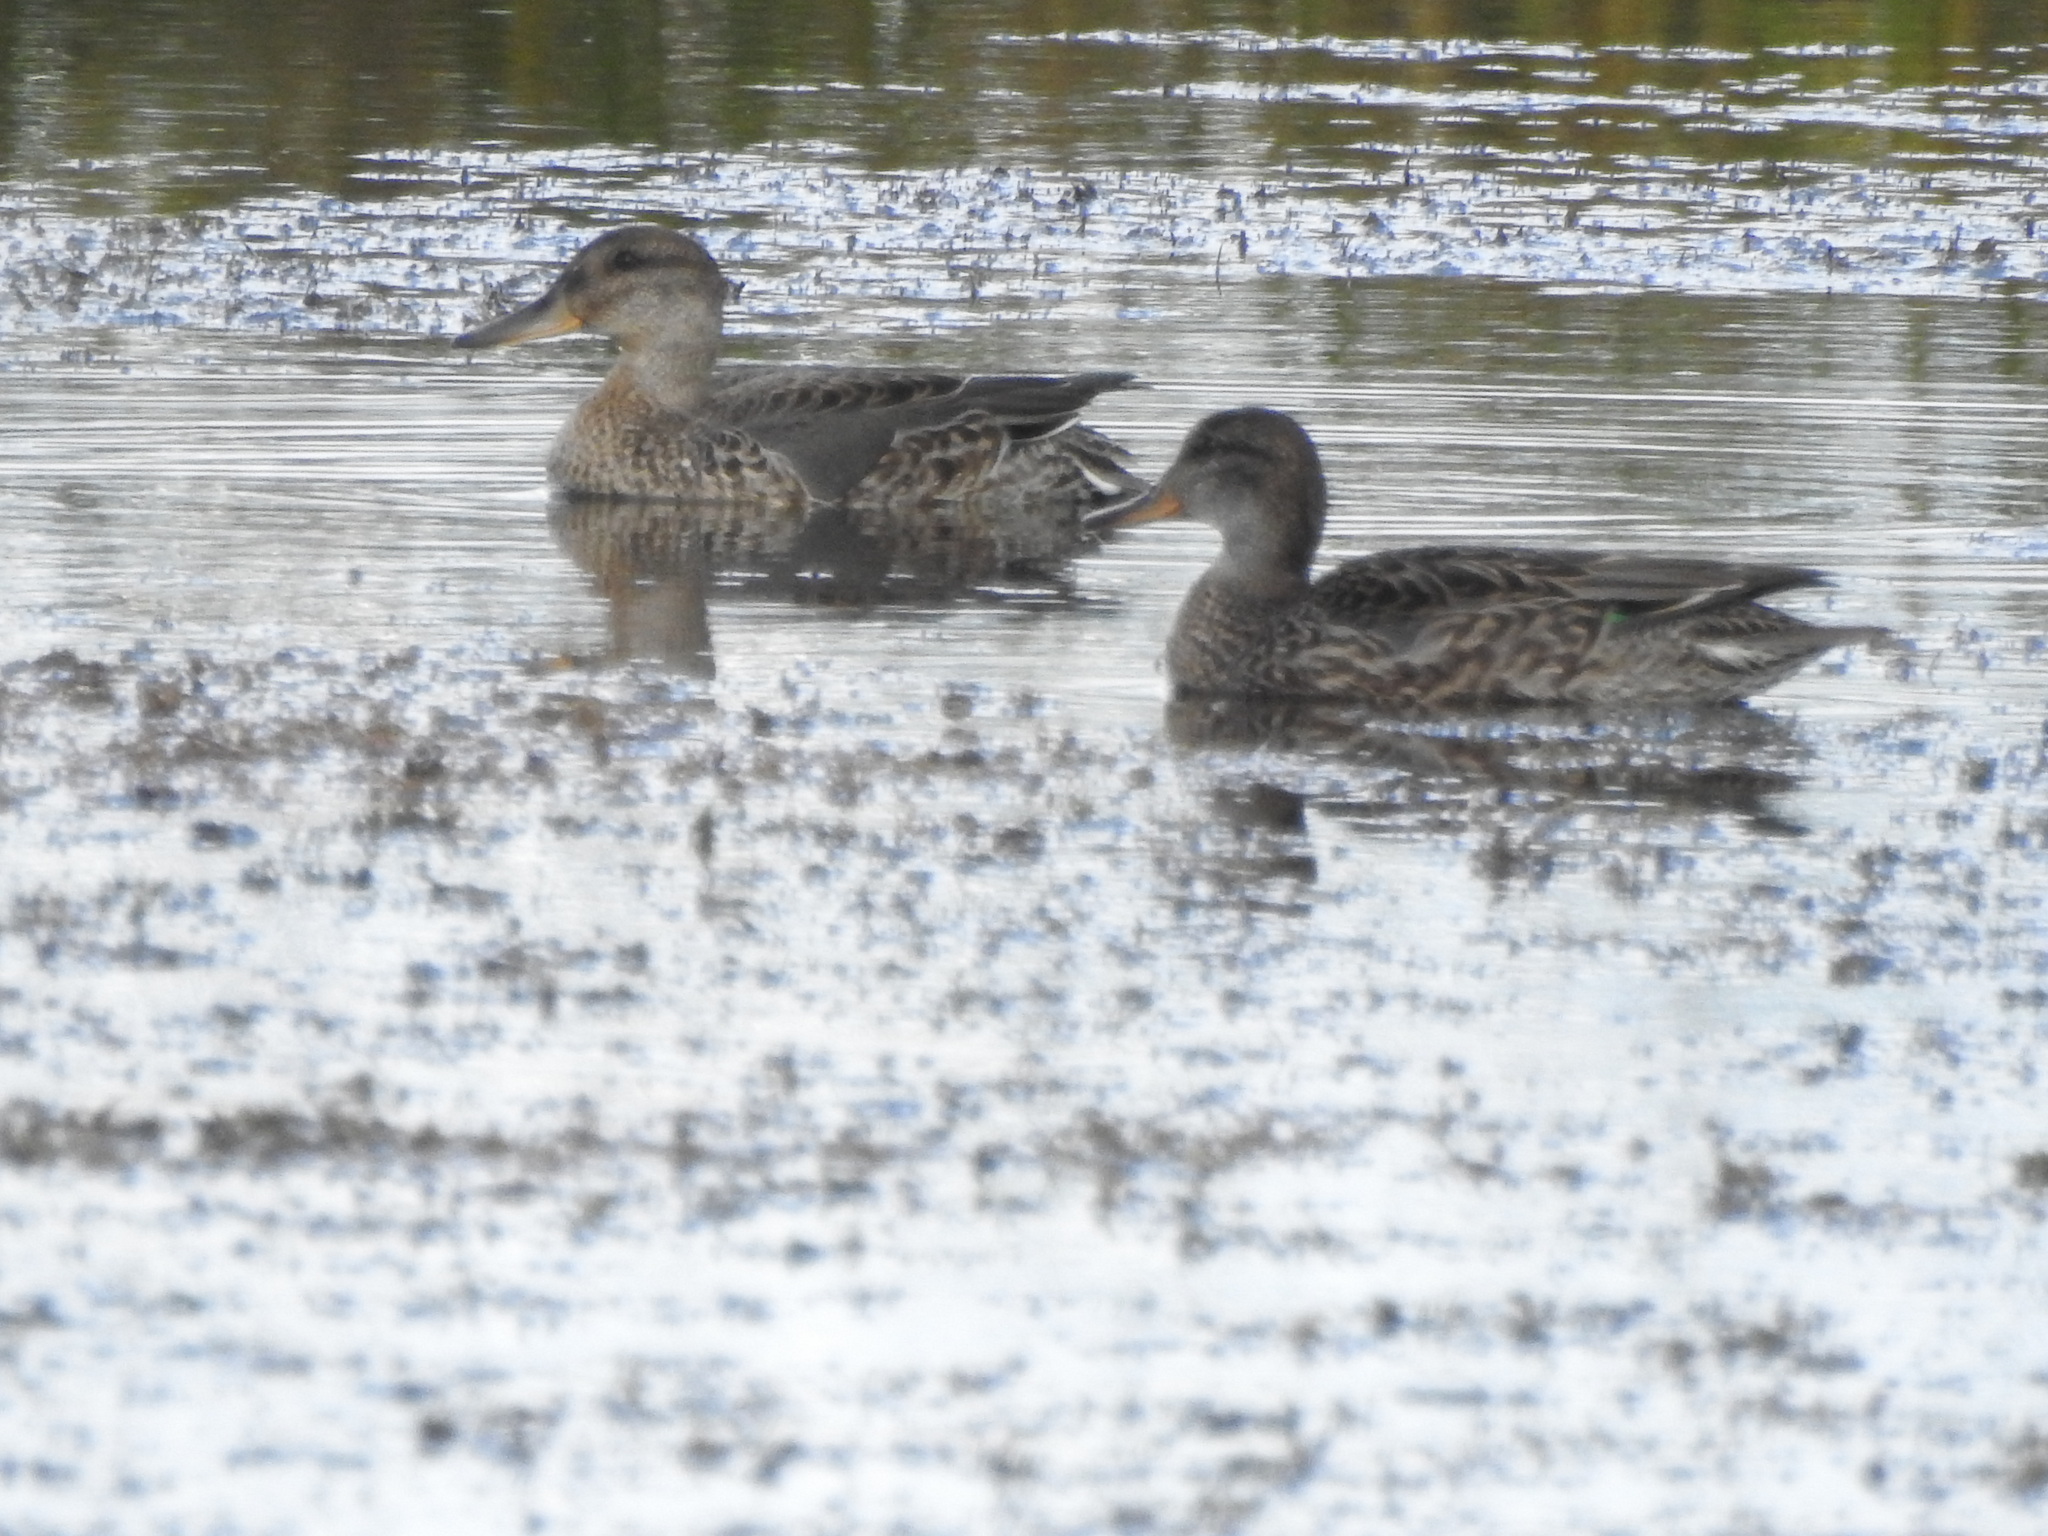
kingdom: Animalia
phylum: Chordata
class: Aves
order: Anseriformes
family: Anatidae
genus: Mareca
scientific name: Mareca strepera
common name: Gadwall
